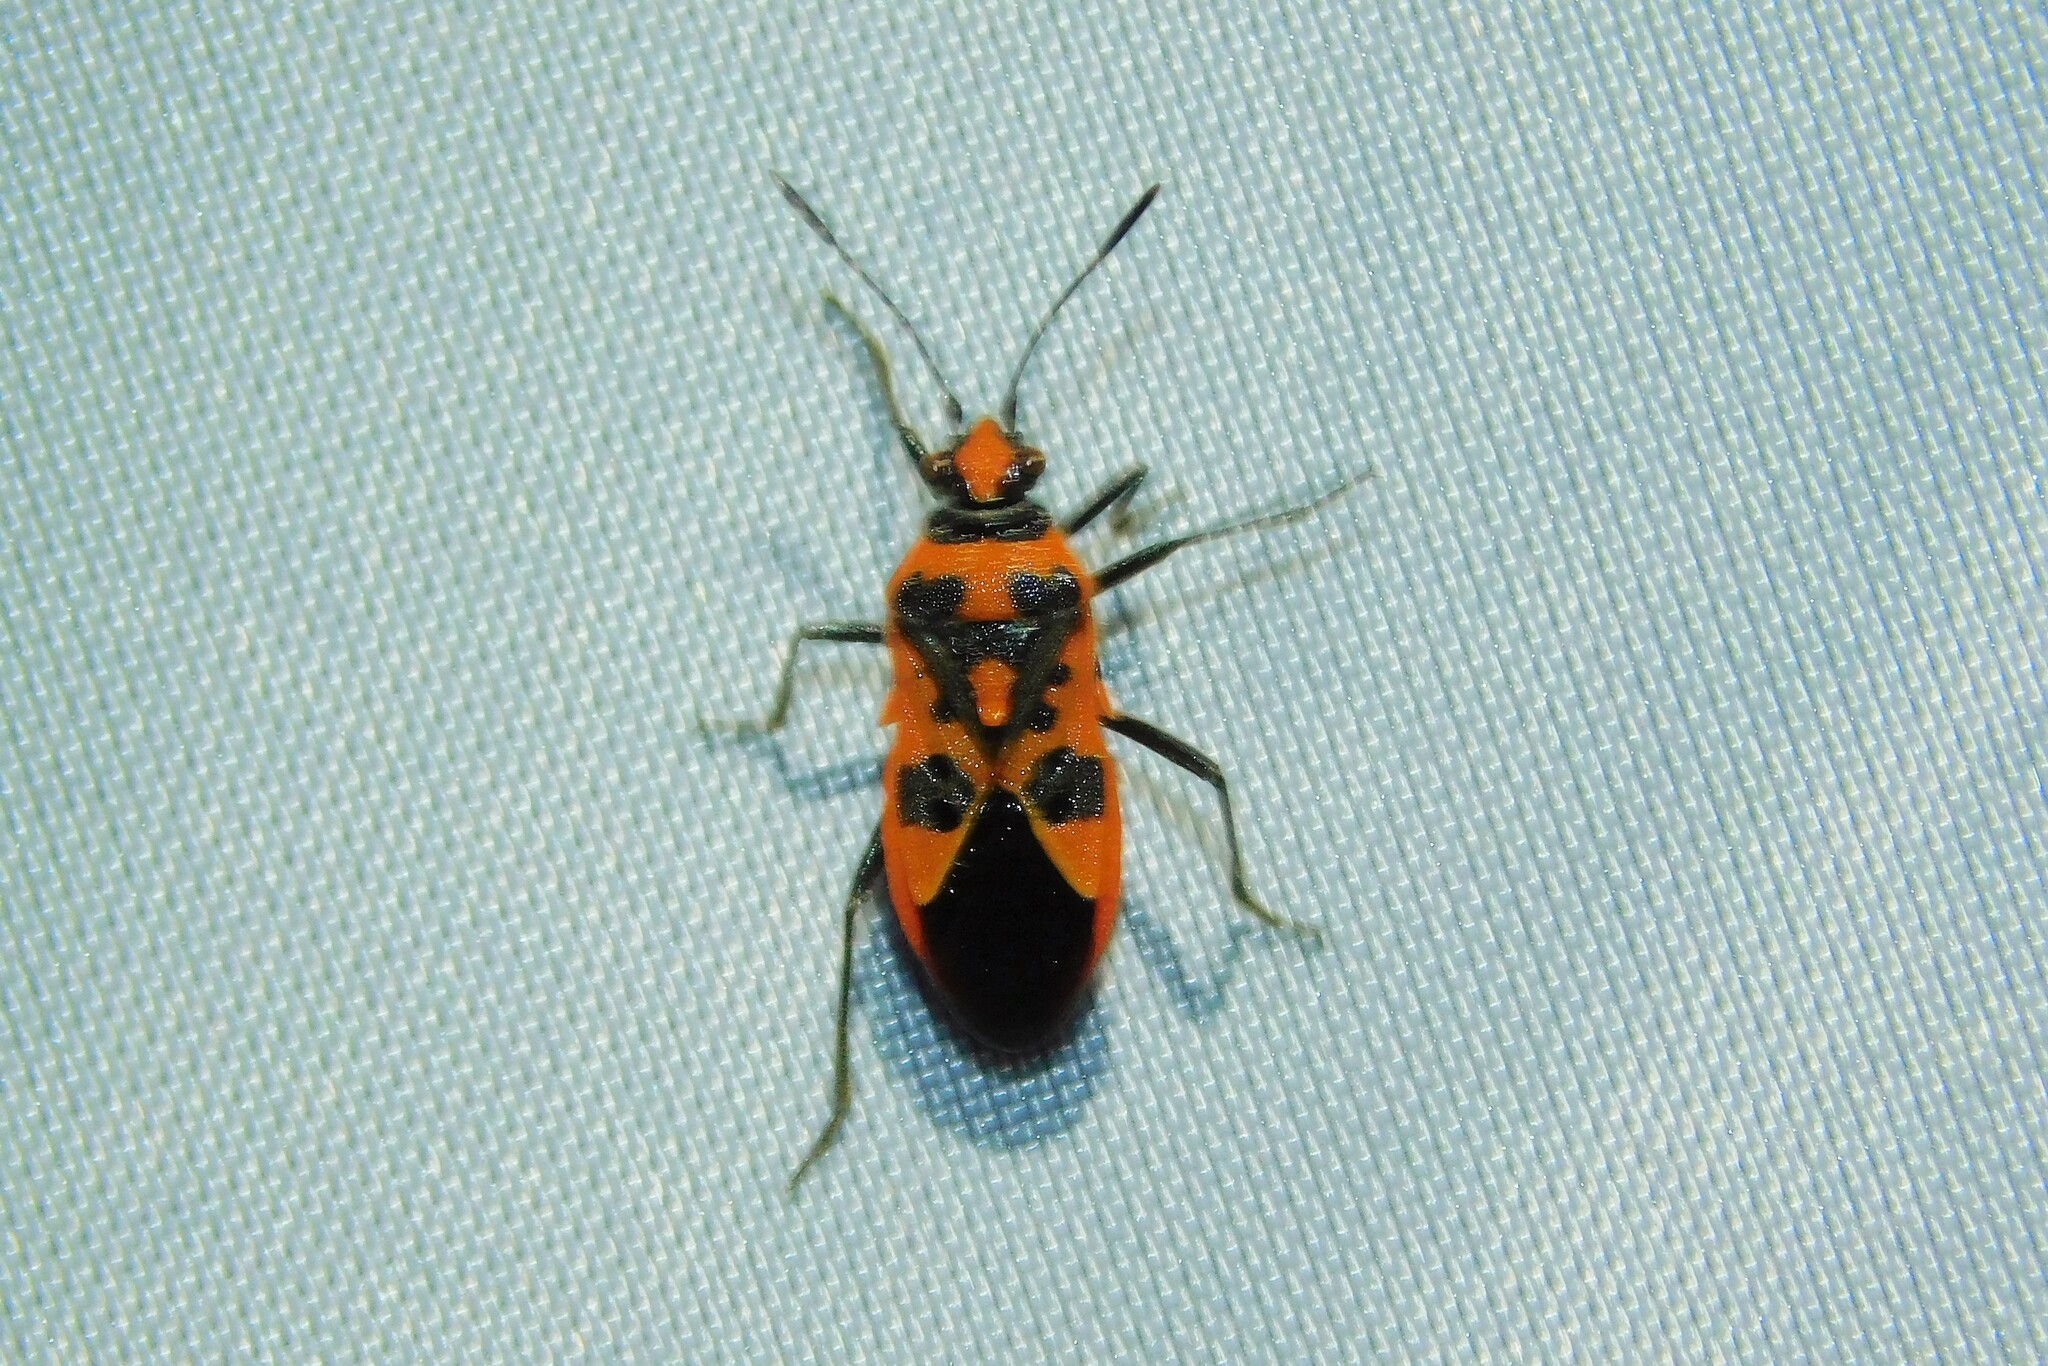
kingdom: Animalia
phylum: Arthropoda
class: Insecta
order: Hemiptera
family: Rhopalidae
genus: Corizus
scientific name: Corizus hyoscyami
